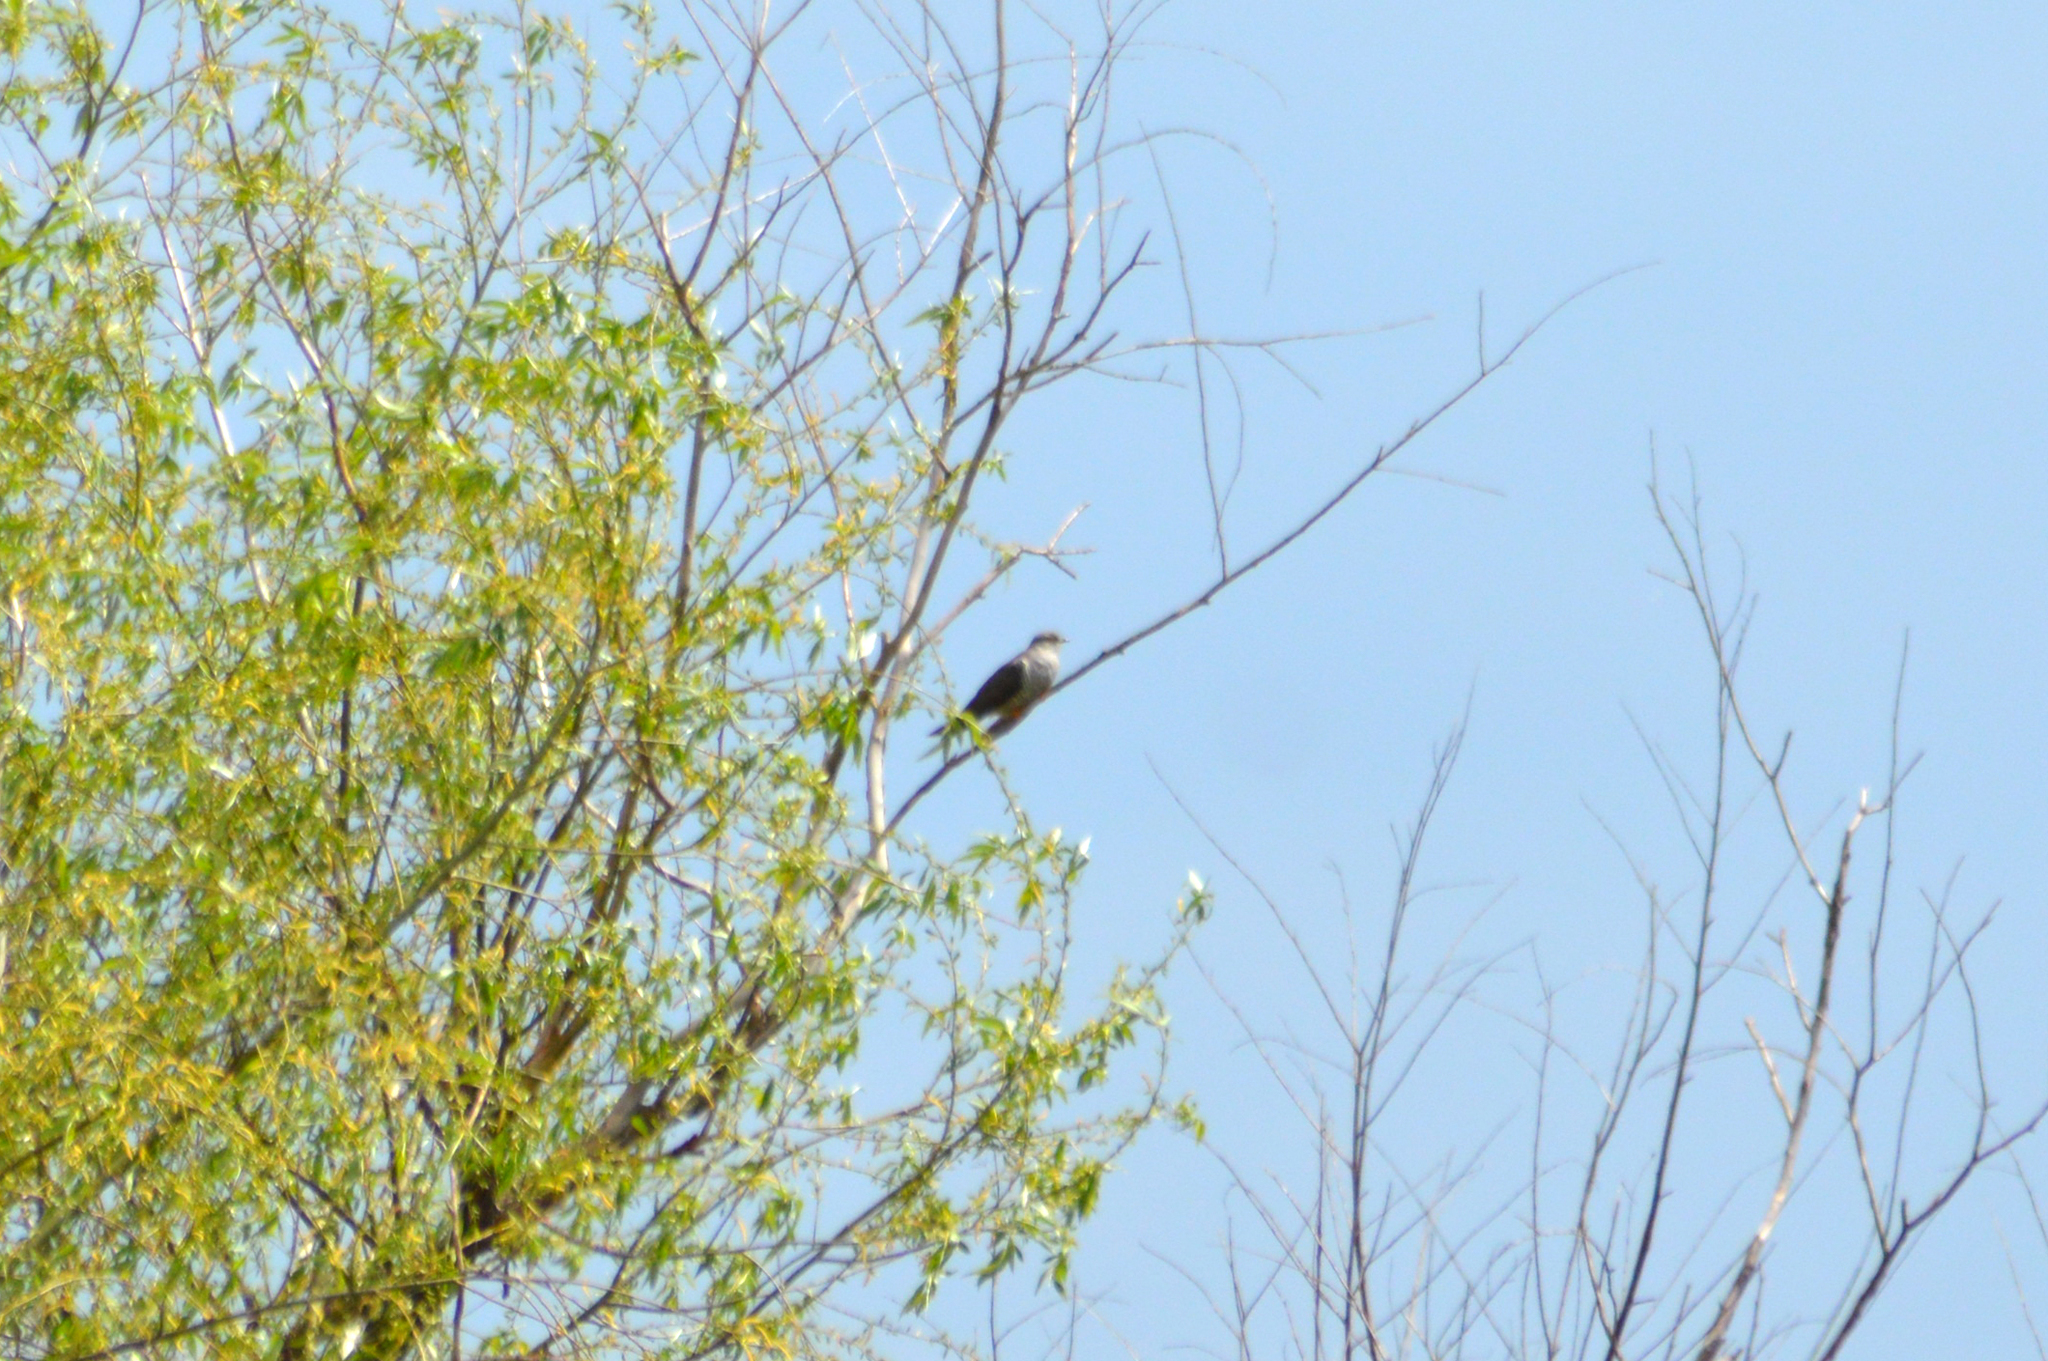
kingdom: Animalia
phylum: Chordata
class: Aves
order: Cuculiformes
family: Cuculidae
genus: Cuculus
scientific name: Cuculus canorus
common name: Common cuckoo
